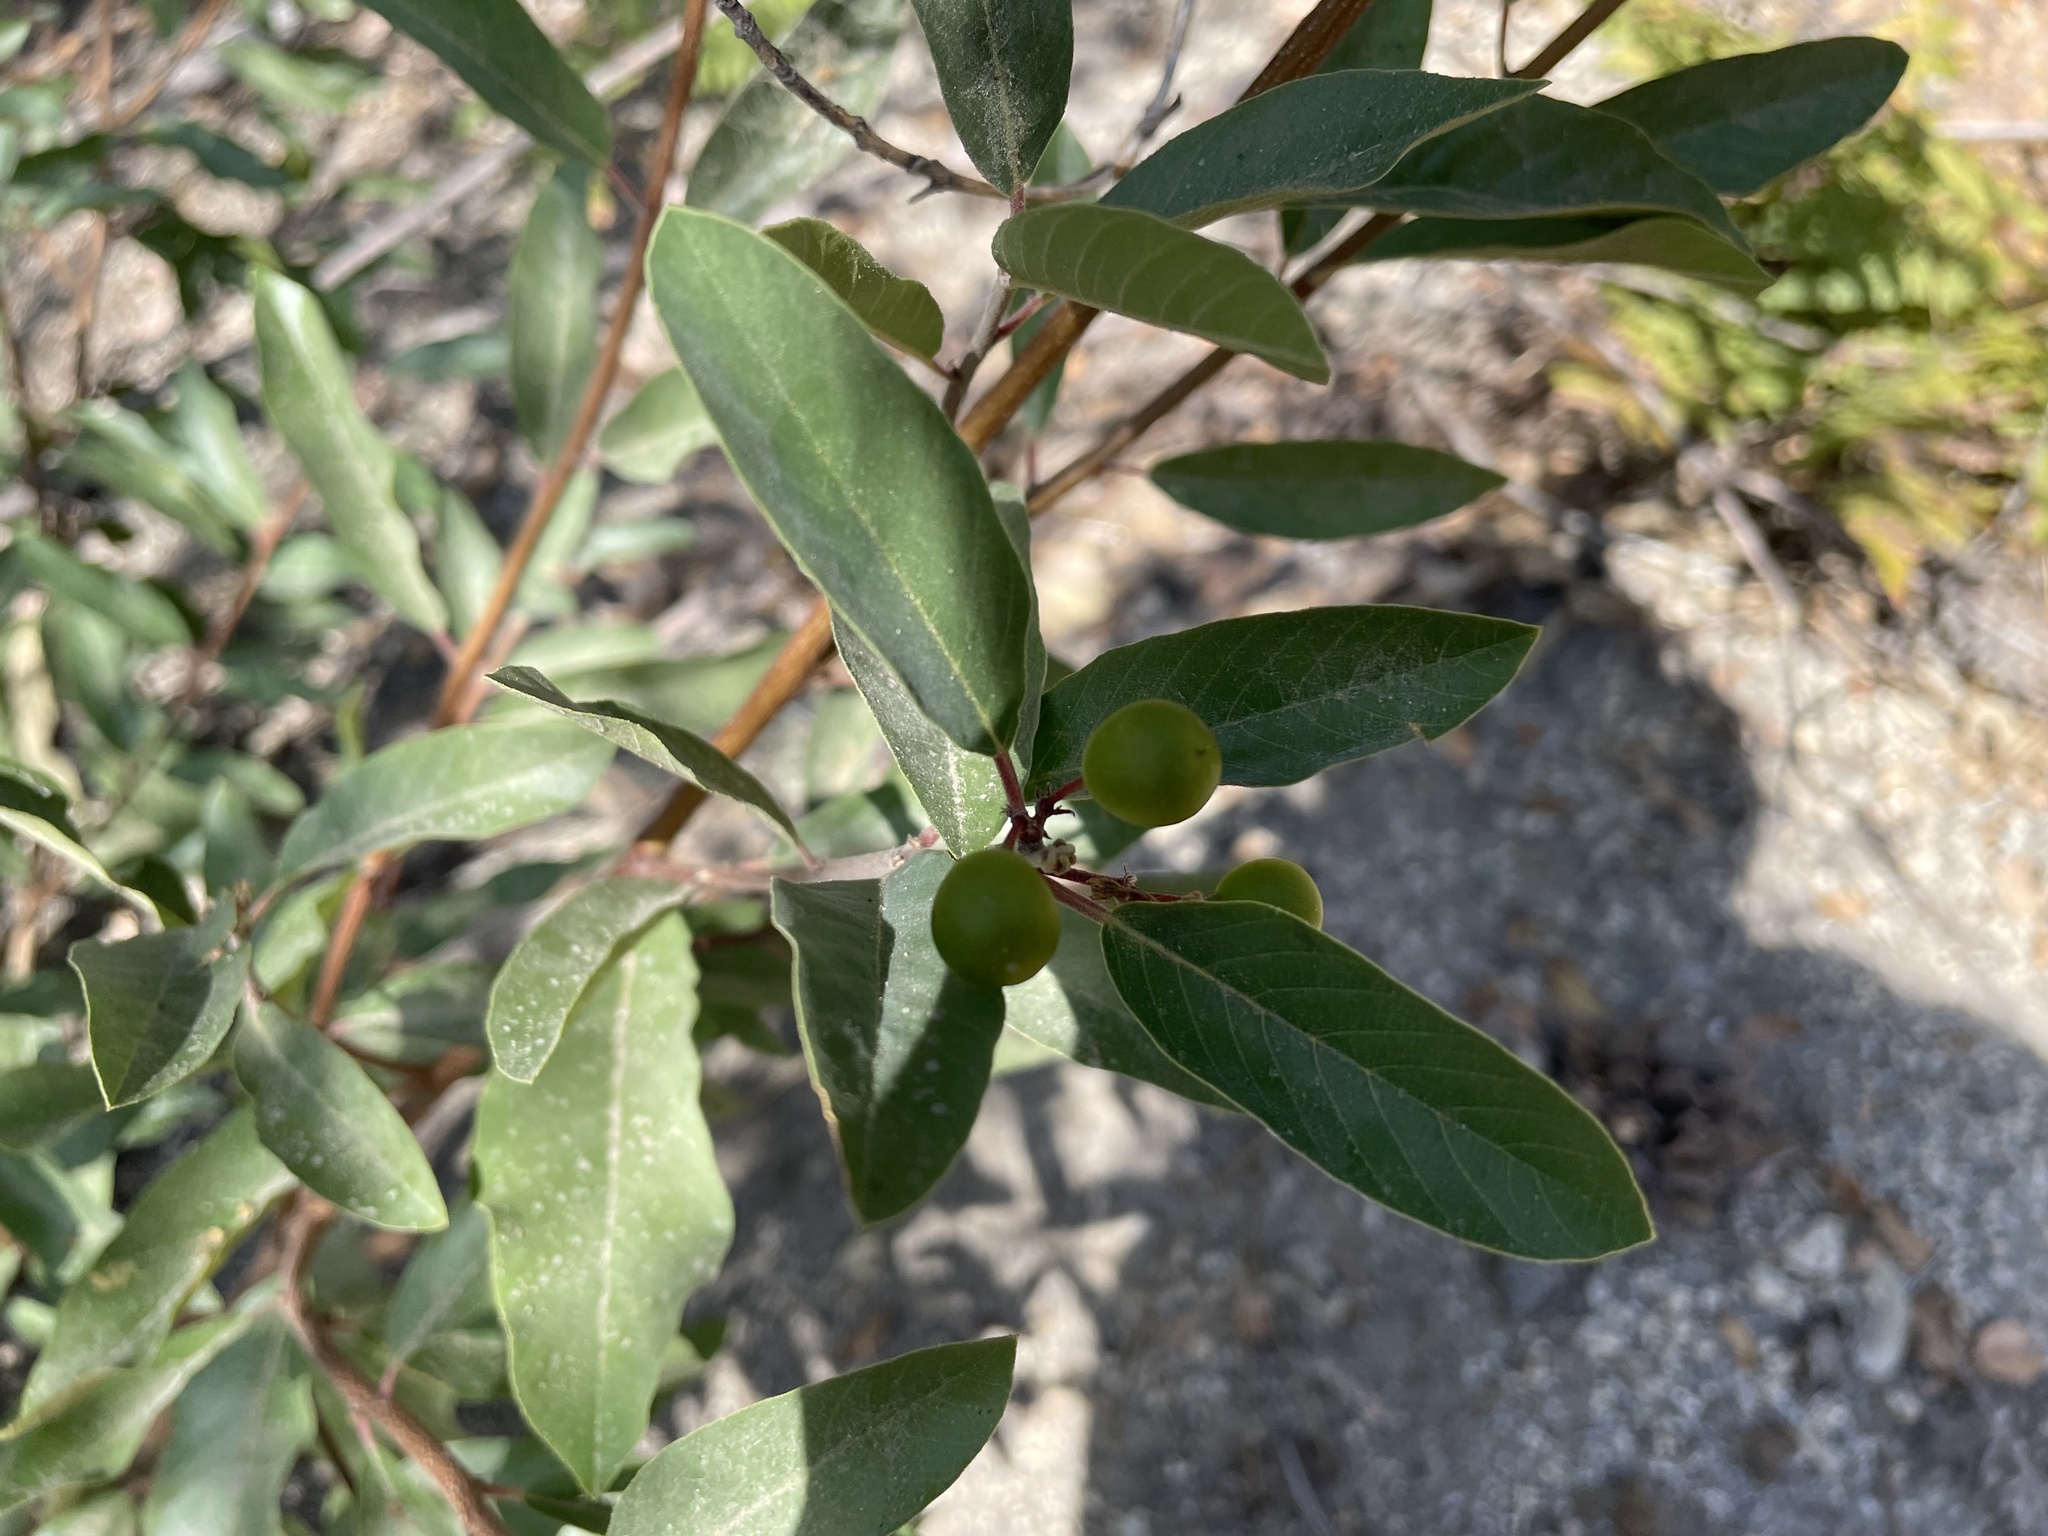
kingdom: Plantae
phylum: Tracheophyta
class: Magnoliopsida
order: Rosales
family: Rhamnaceae
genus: Frangula
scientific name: Frangula californica
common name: California buckthorn
